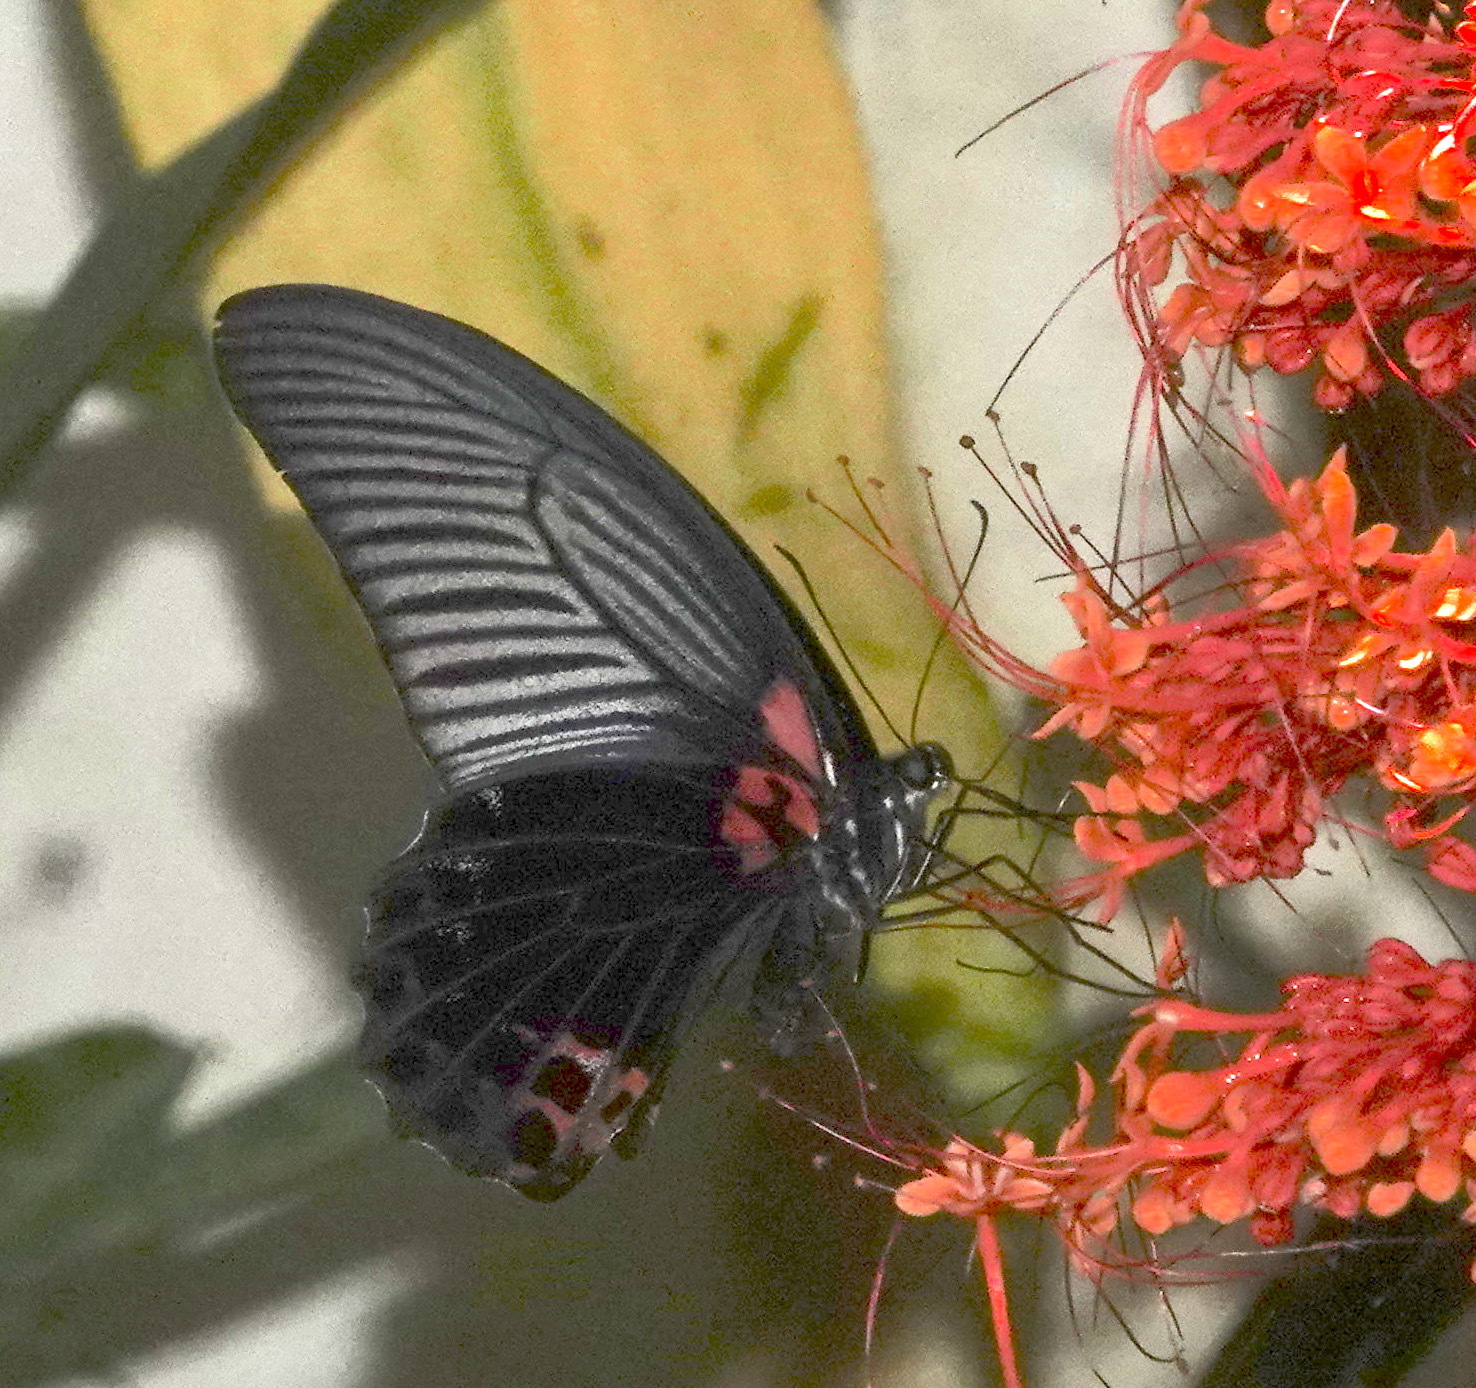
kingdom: Animalia
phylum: Arthropoda
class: Insecta
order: Lepidoptera
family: Papilionidae
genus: Papilio
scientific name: Papilio memnon
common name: Great mormon
